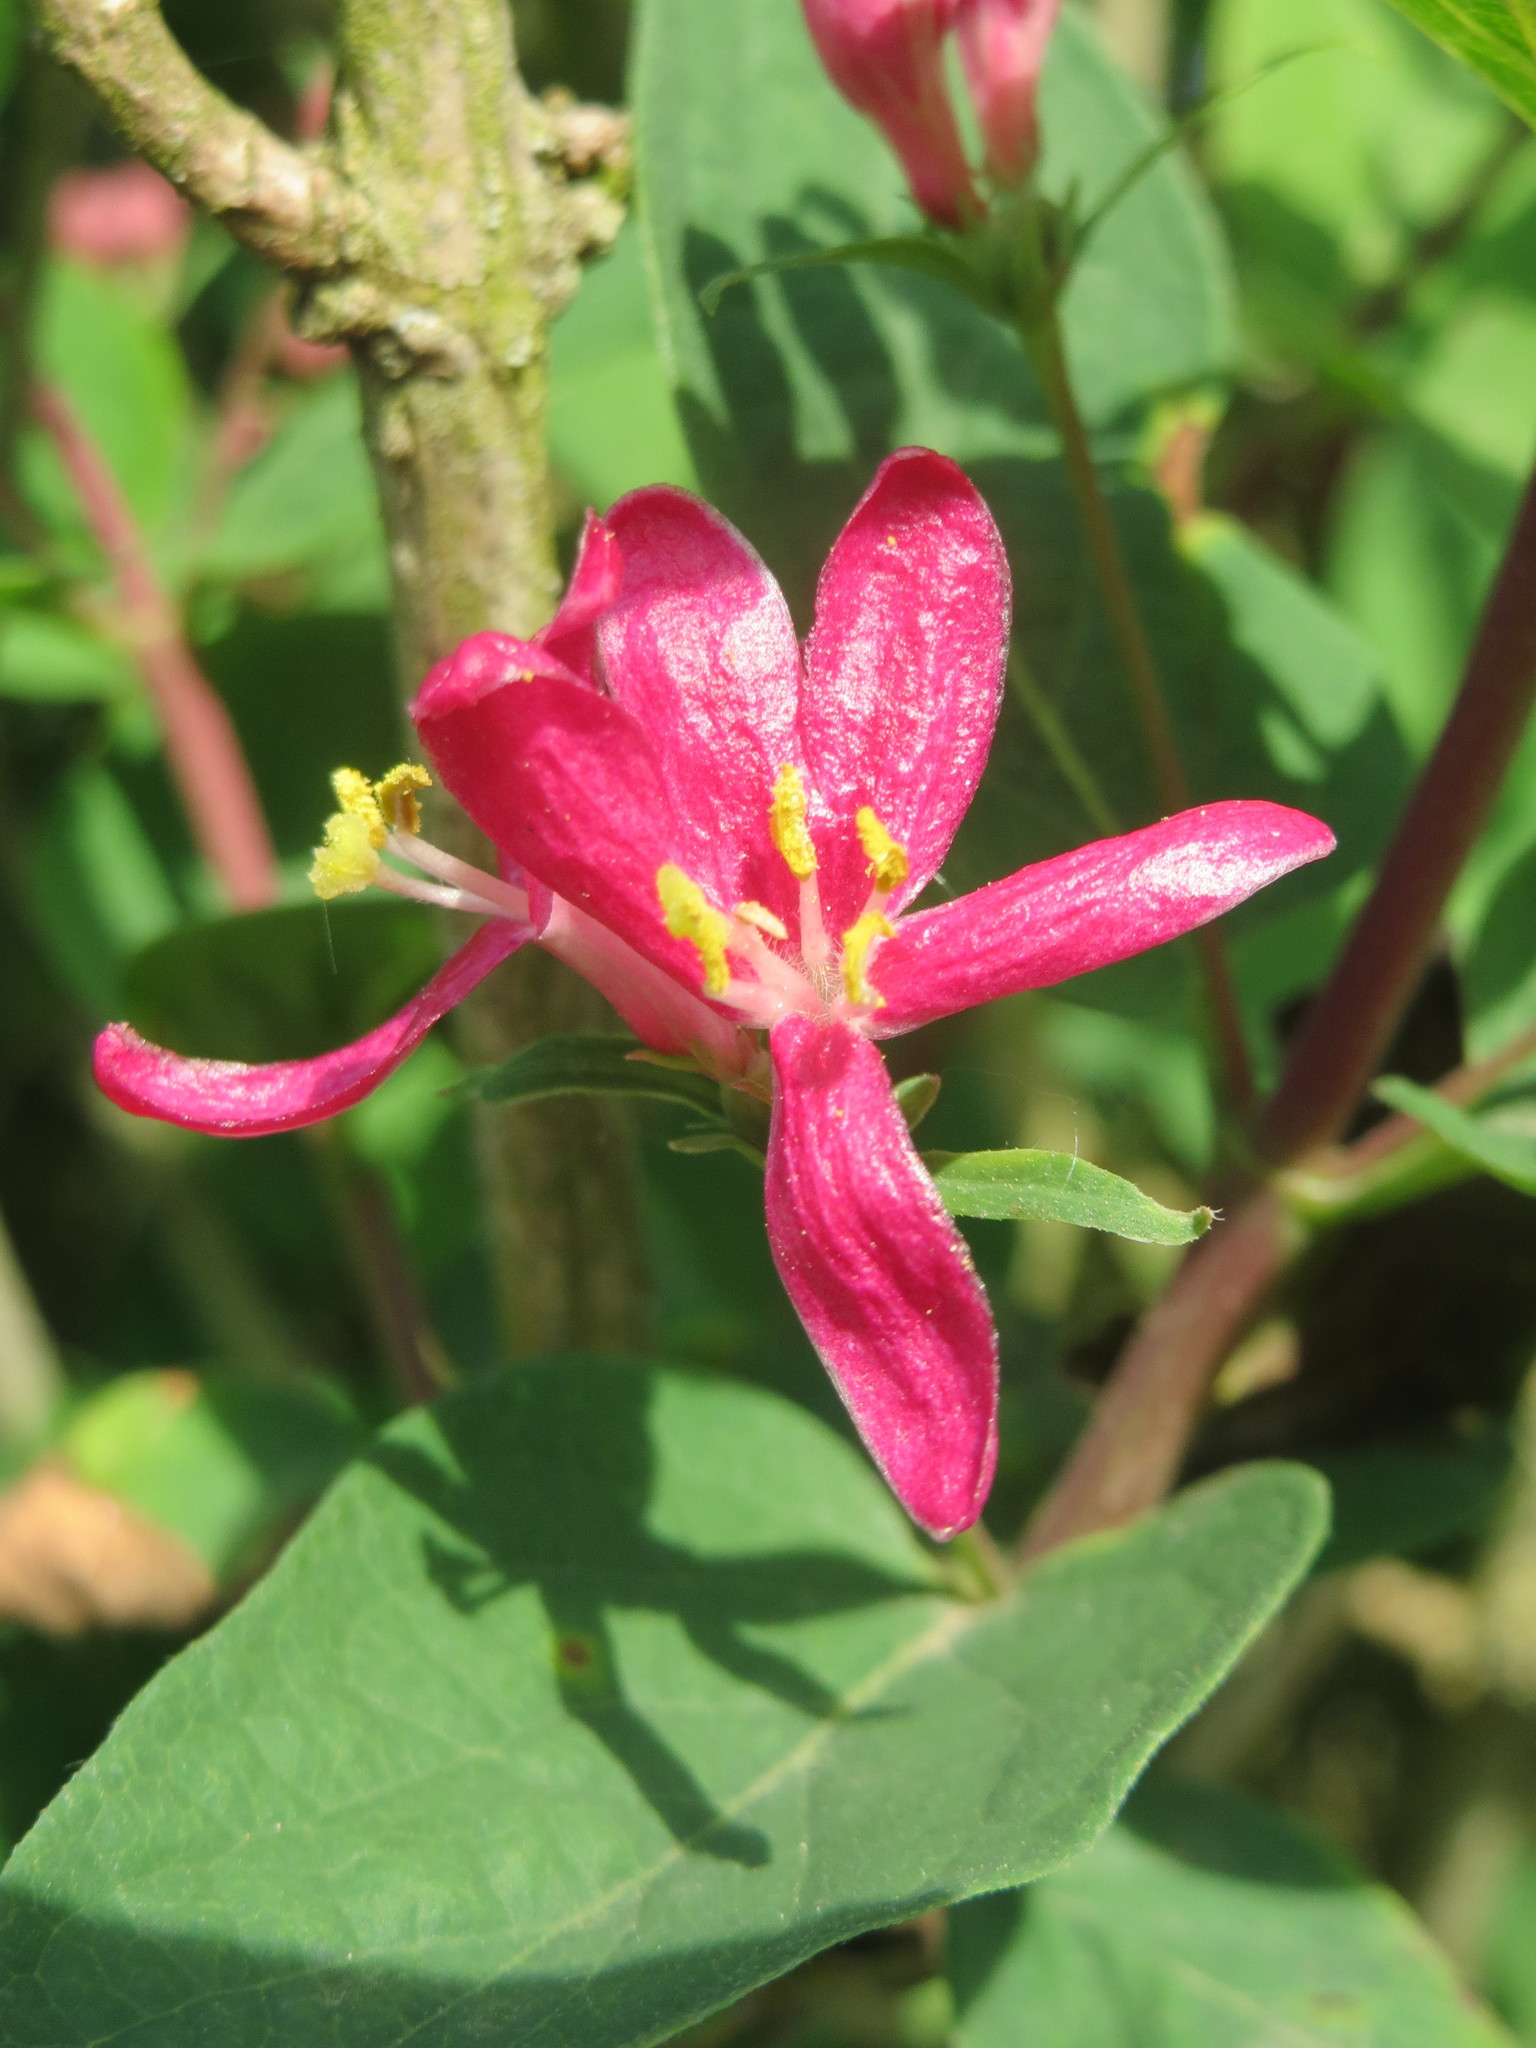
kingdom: Plantae
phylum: Tracheophyta
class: Magnoliopsida
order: Dipsacales
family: Caprifoliaceae
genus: Lonicera
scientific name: Lonicera tatarica
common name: Tatarian honeysuckle
